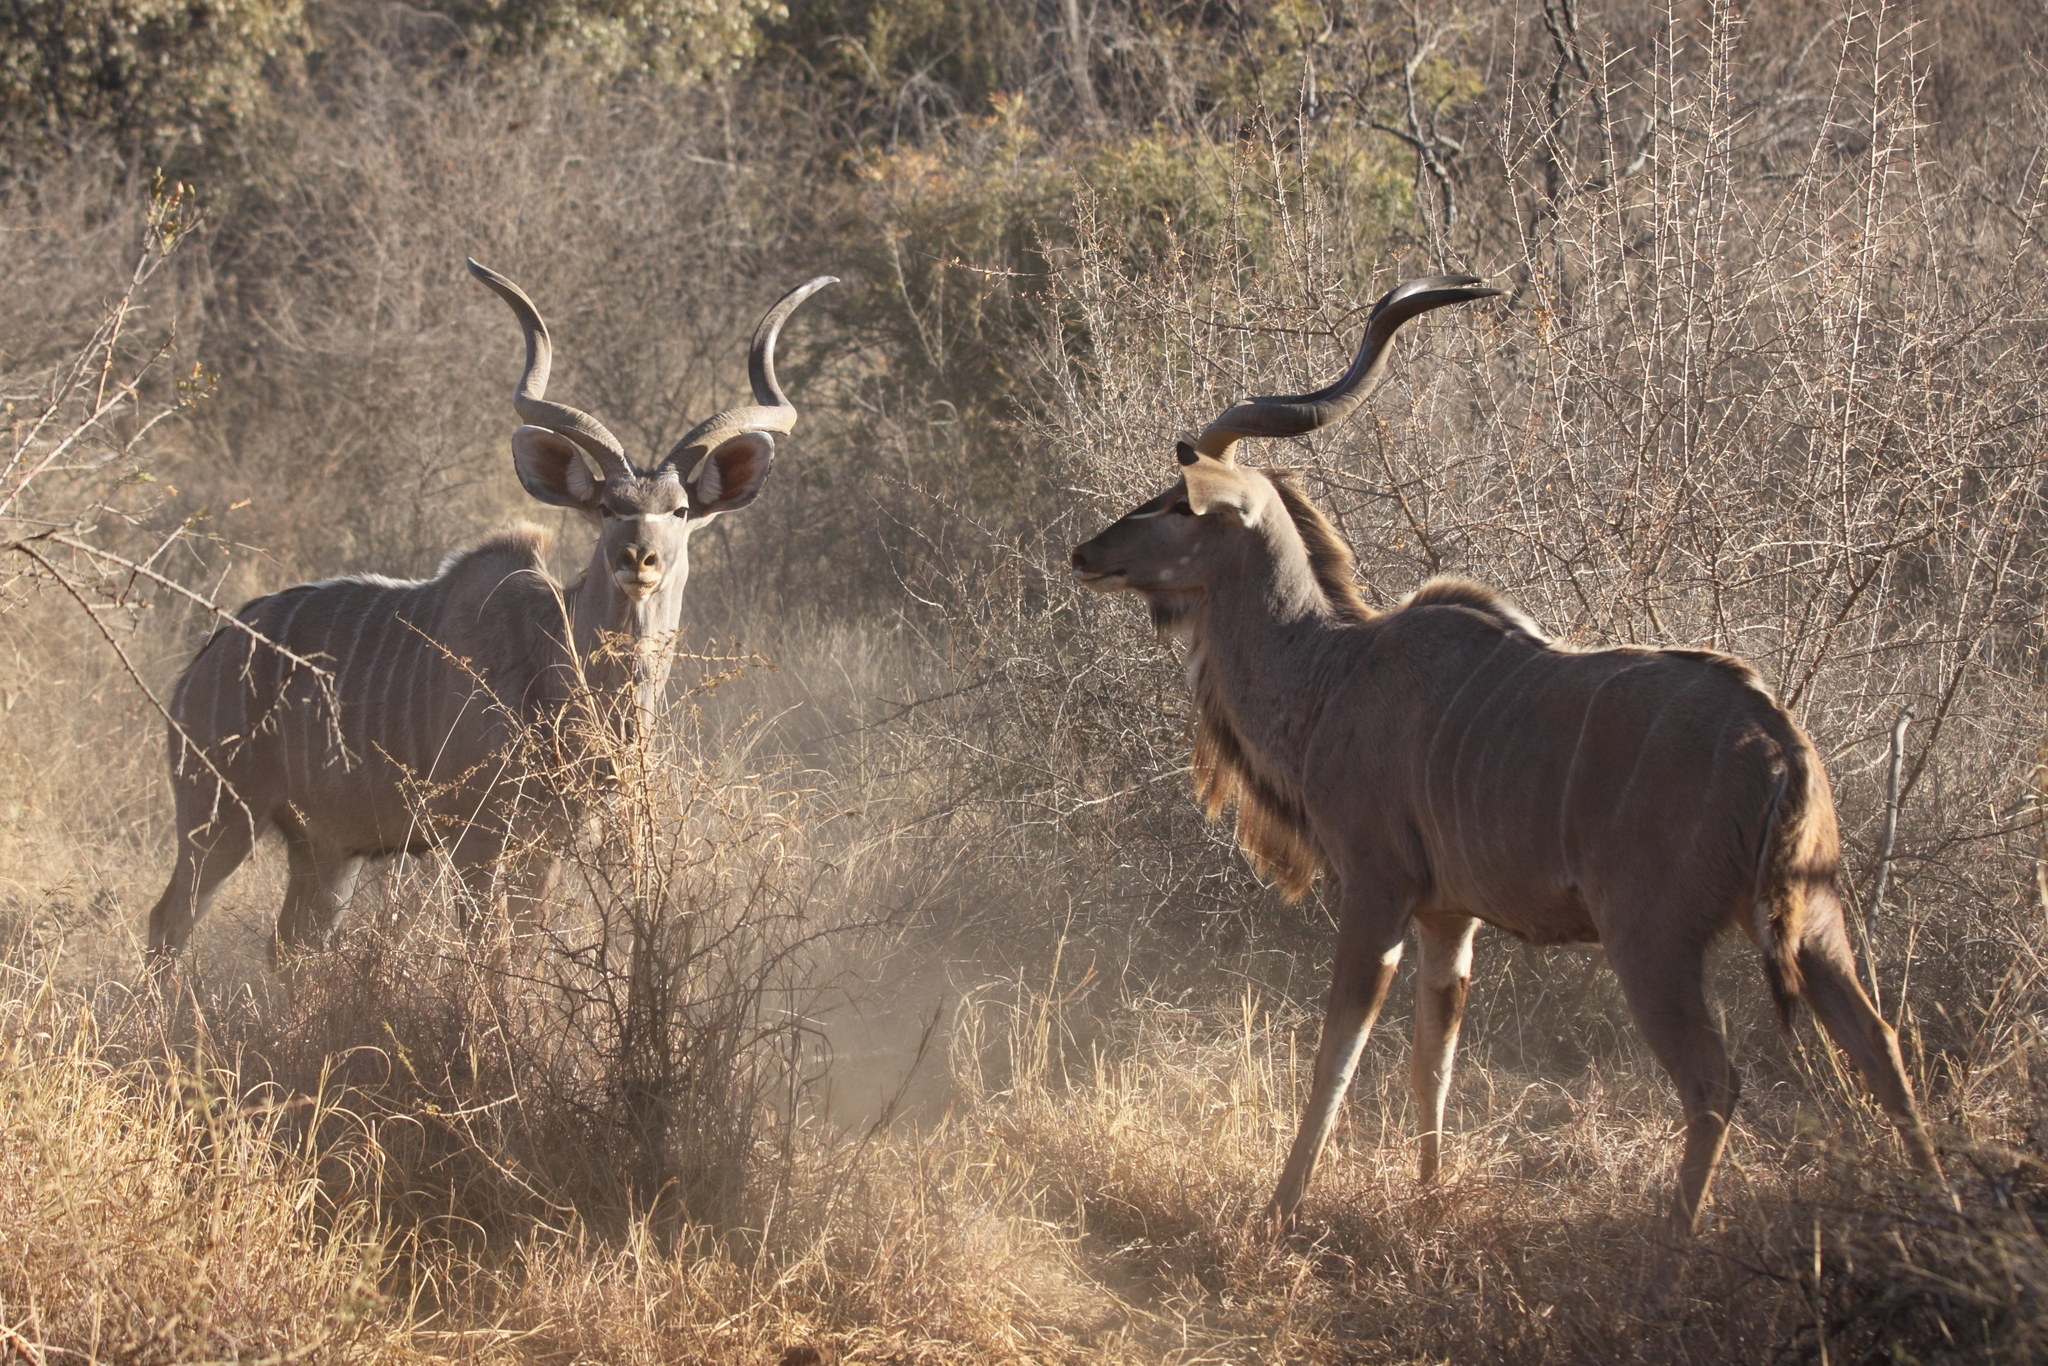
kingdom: Animalia
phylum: Chordata
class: Mammalia
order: Artiodactyla
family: Bovidae
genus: Tragelaphus
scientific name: Tragelaphus strepsiceros
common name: Greater kudu
